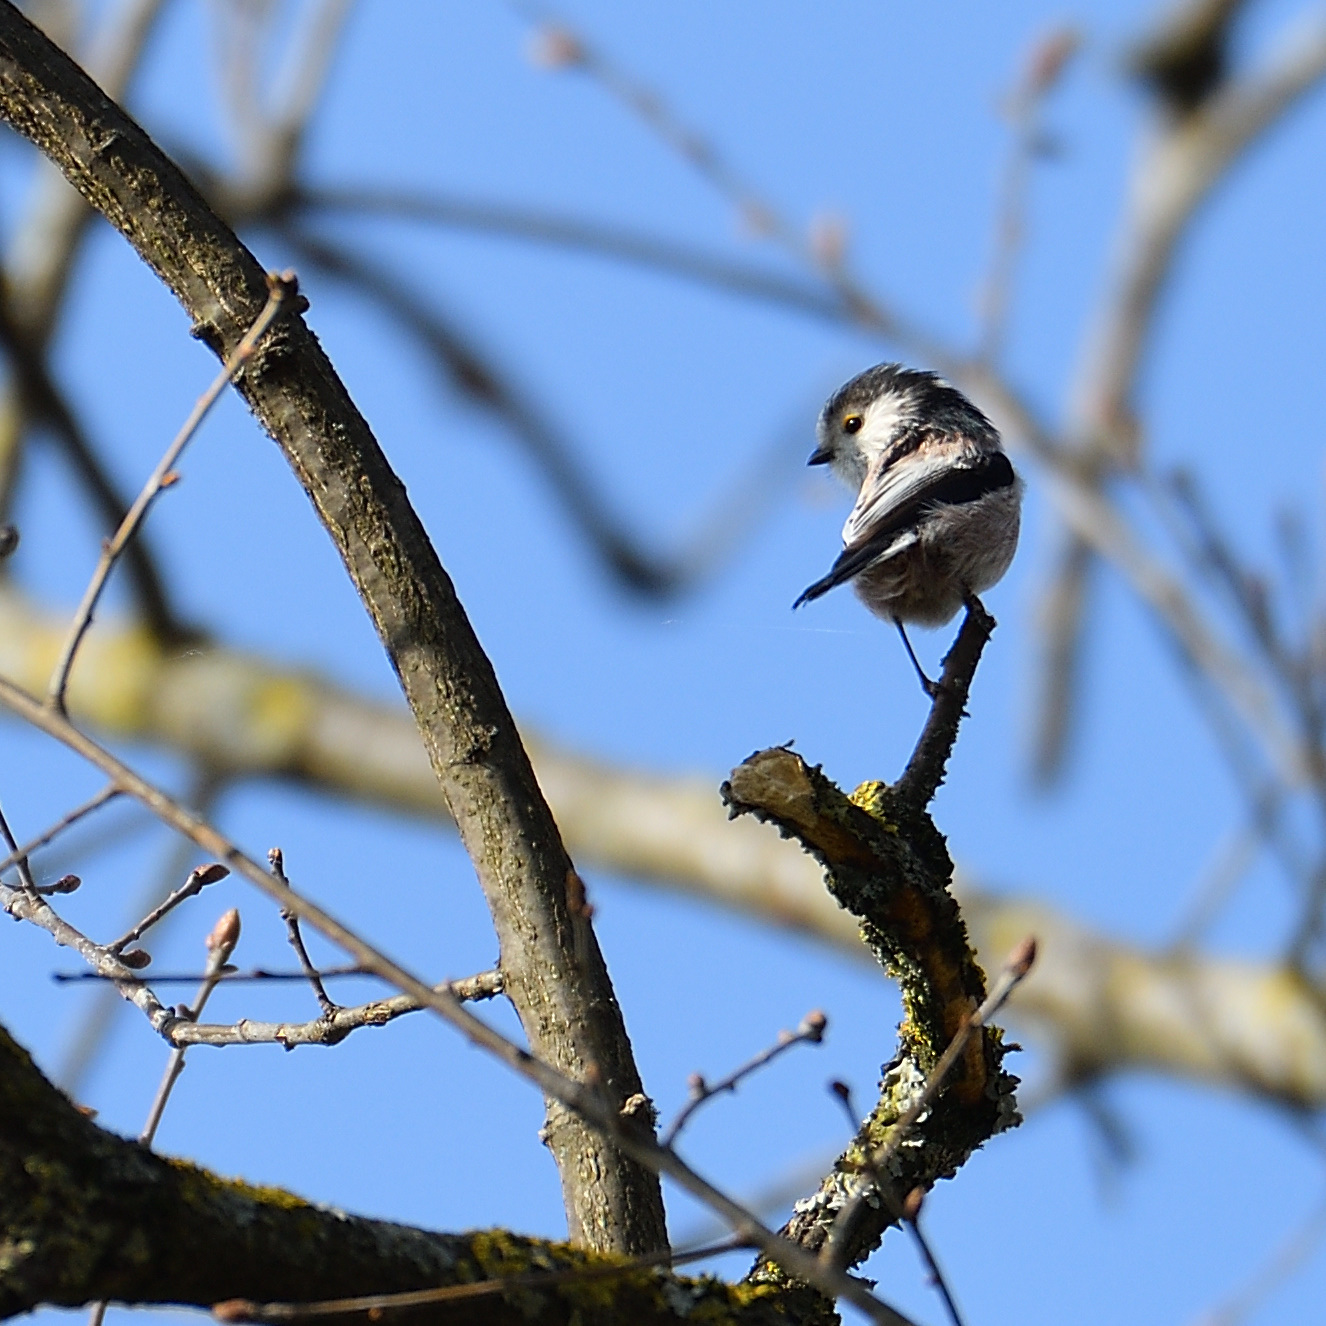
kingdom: Animalia
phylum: Chordata
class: Aves
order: Passeriformes
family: Aegithalidae
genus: Aegithalos
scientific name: Aegithalos caudatus
